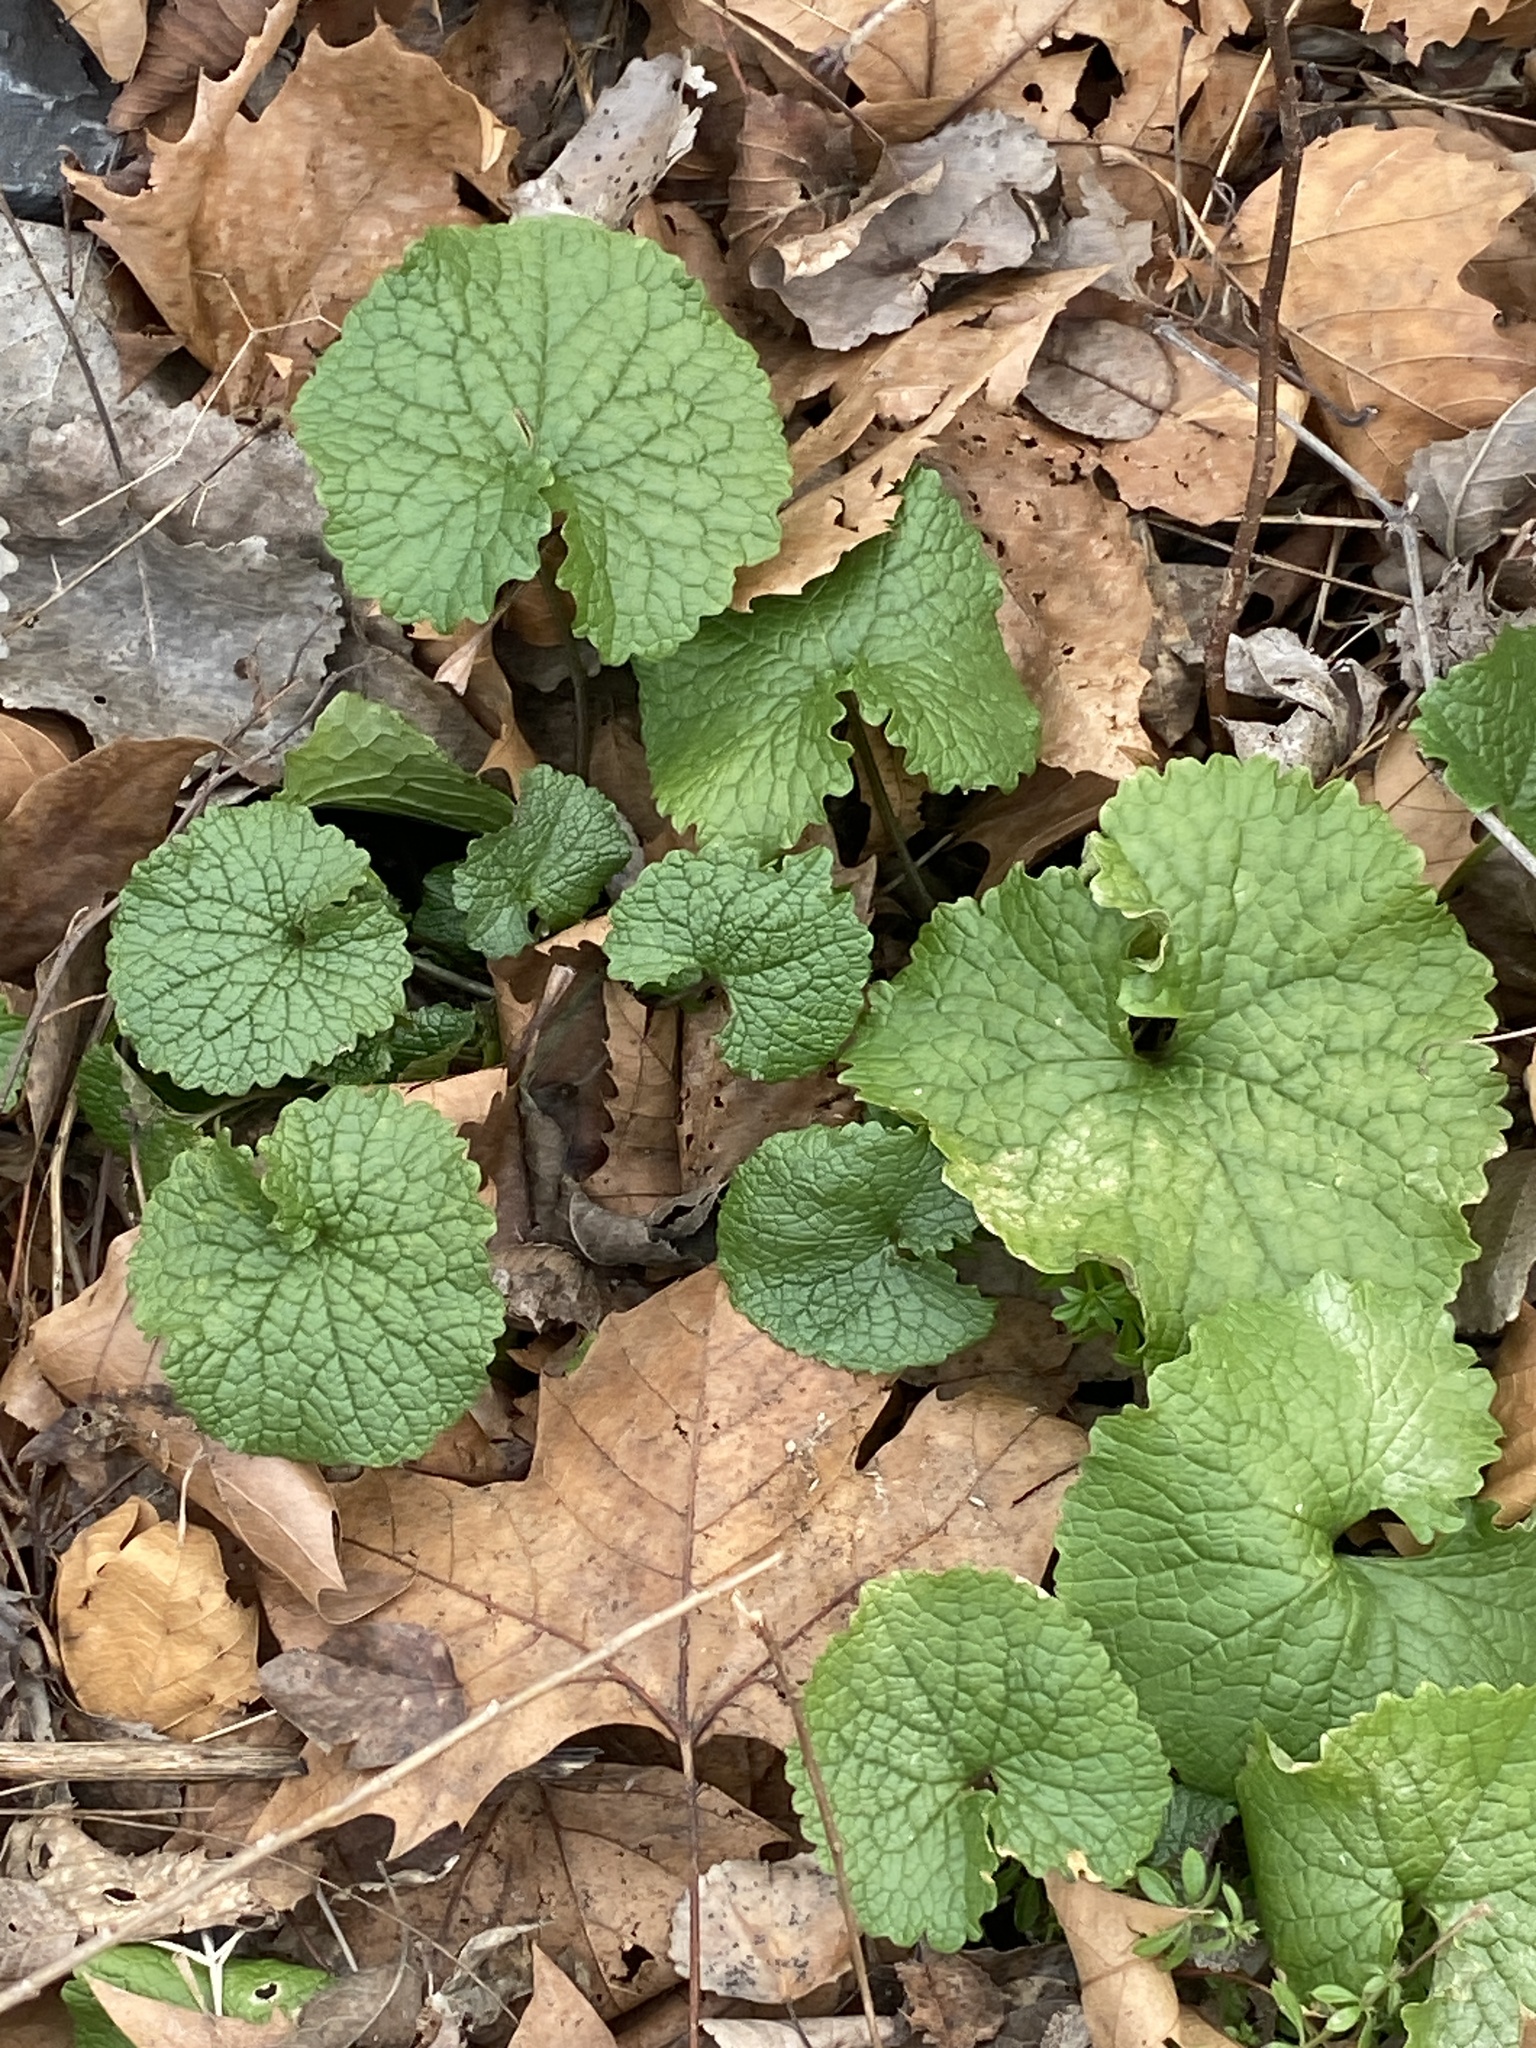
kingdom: Plantae
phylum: Tracheophyta
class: Magnoliopsida
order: Brassicales
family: Brassicaceae
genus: Alliaria
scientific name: Alliaria petiolata
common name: Garlic mustard
